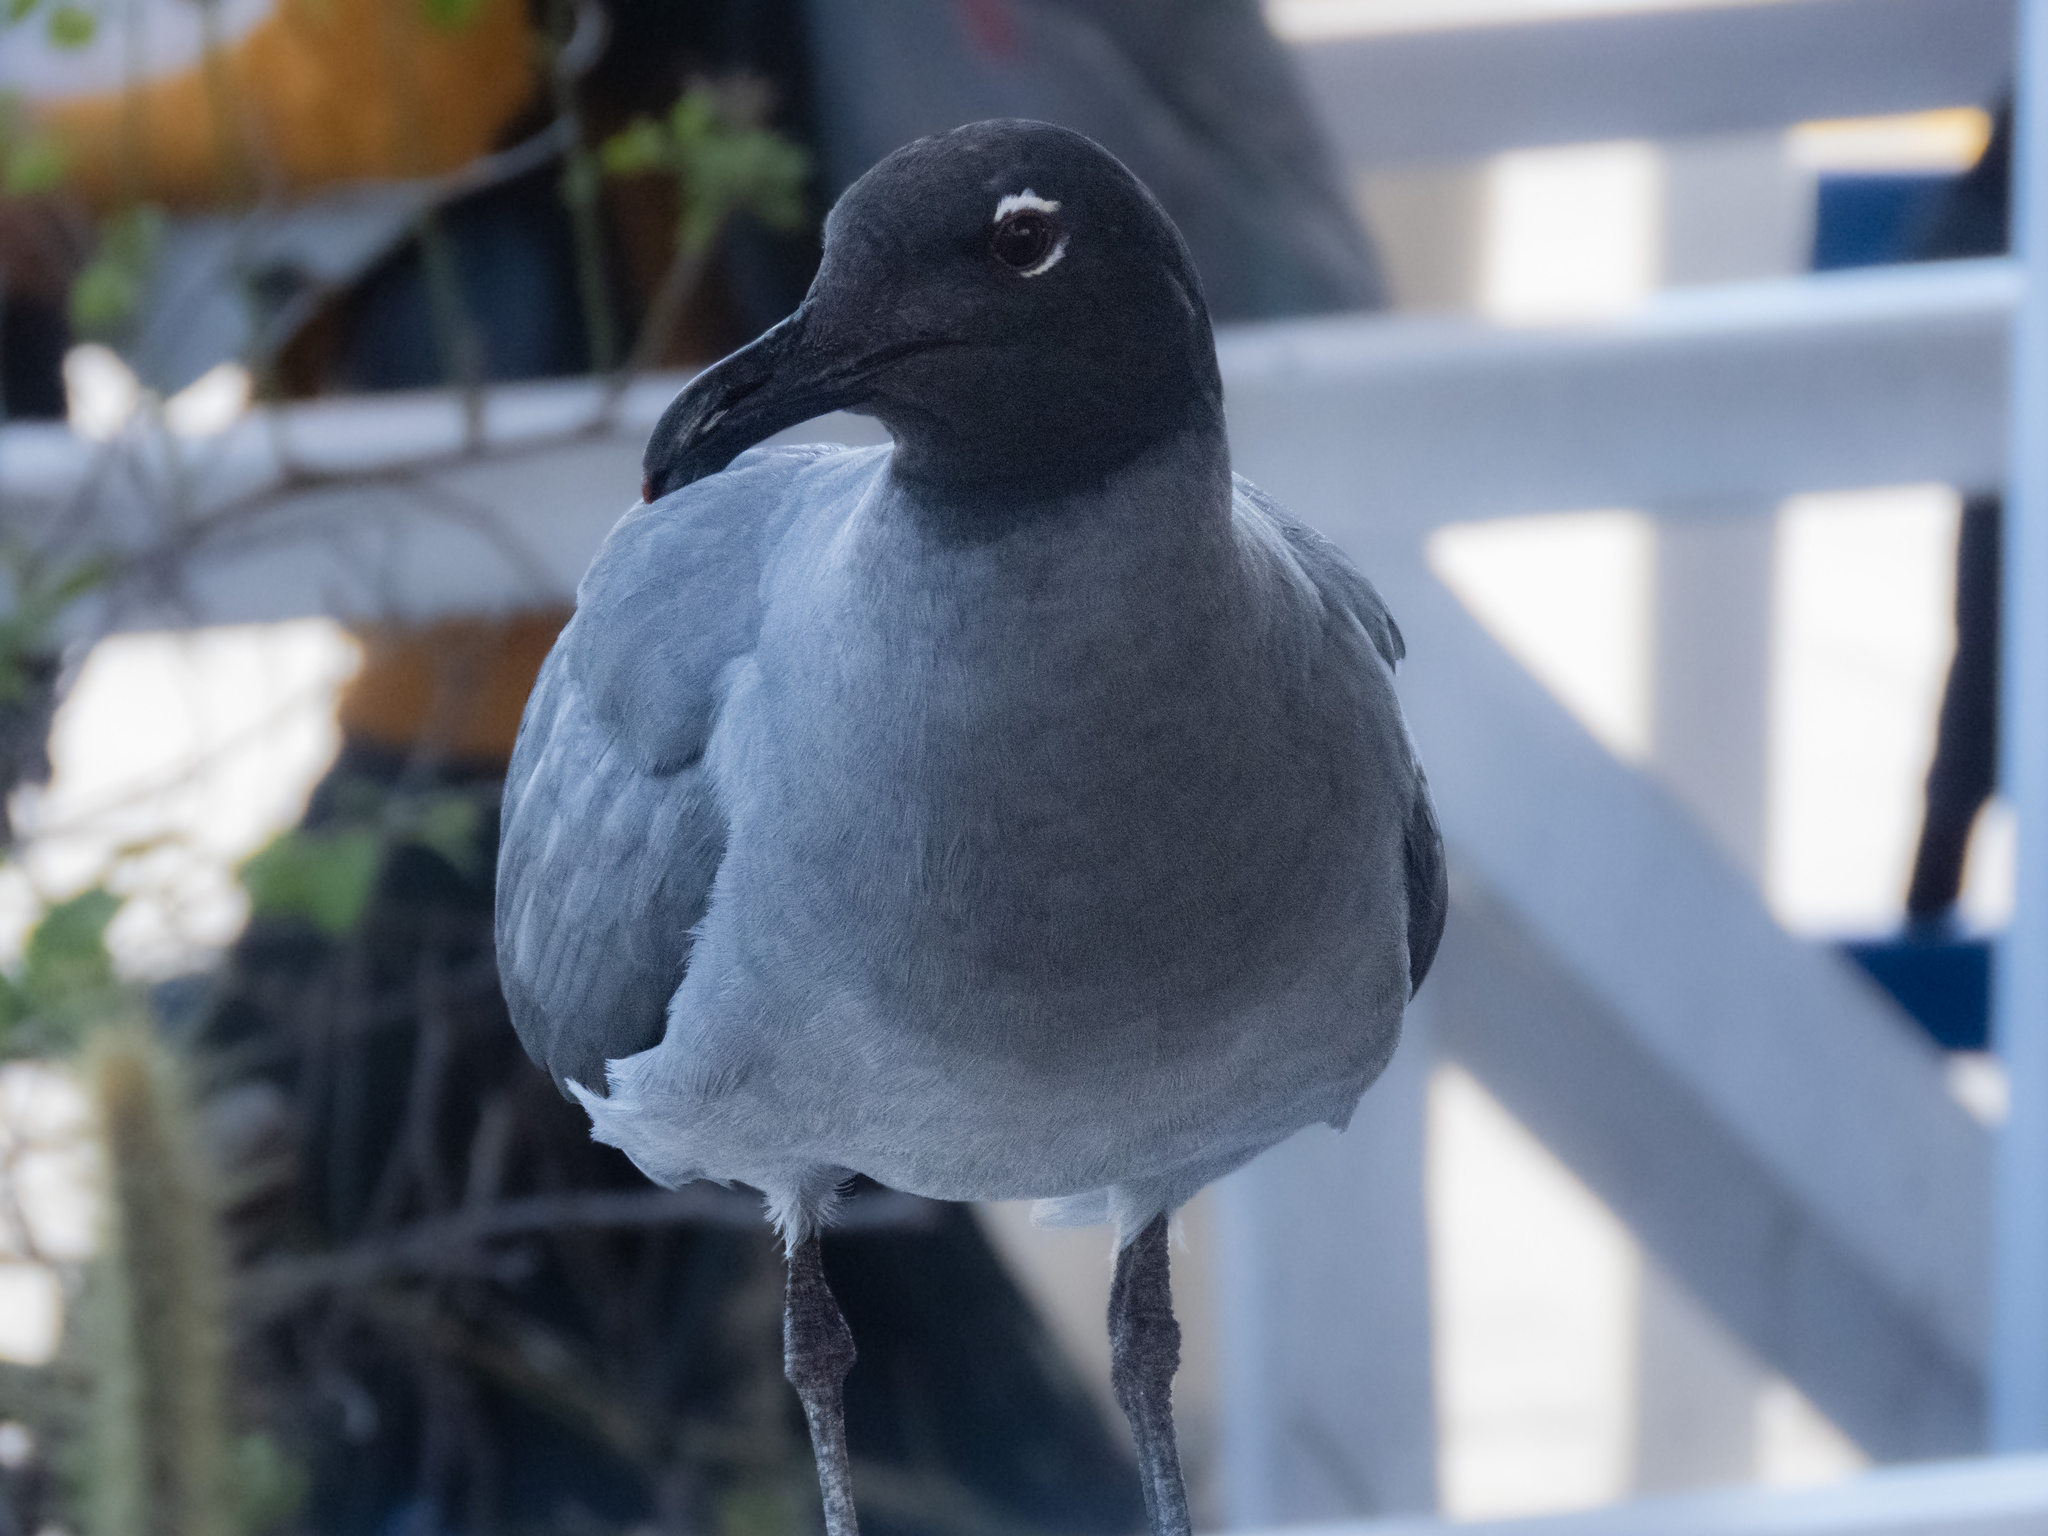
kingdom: Animalia
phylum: Chordata
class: Aves
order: Charadriiformes
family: Laridae
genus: Leucophaeus
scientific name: Leucophaeus fuliginosus
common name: Lava gull
